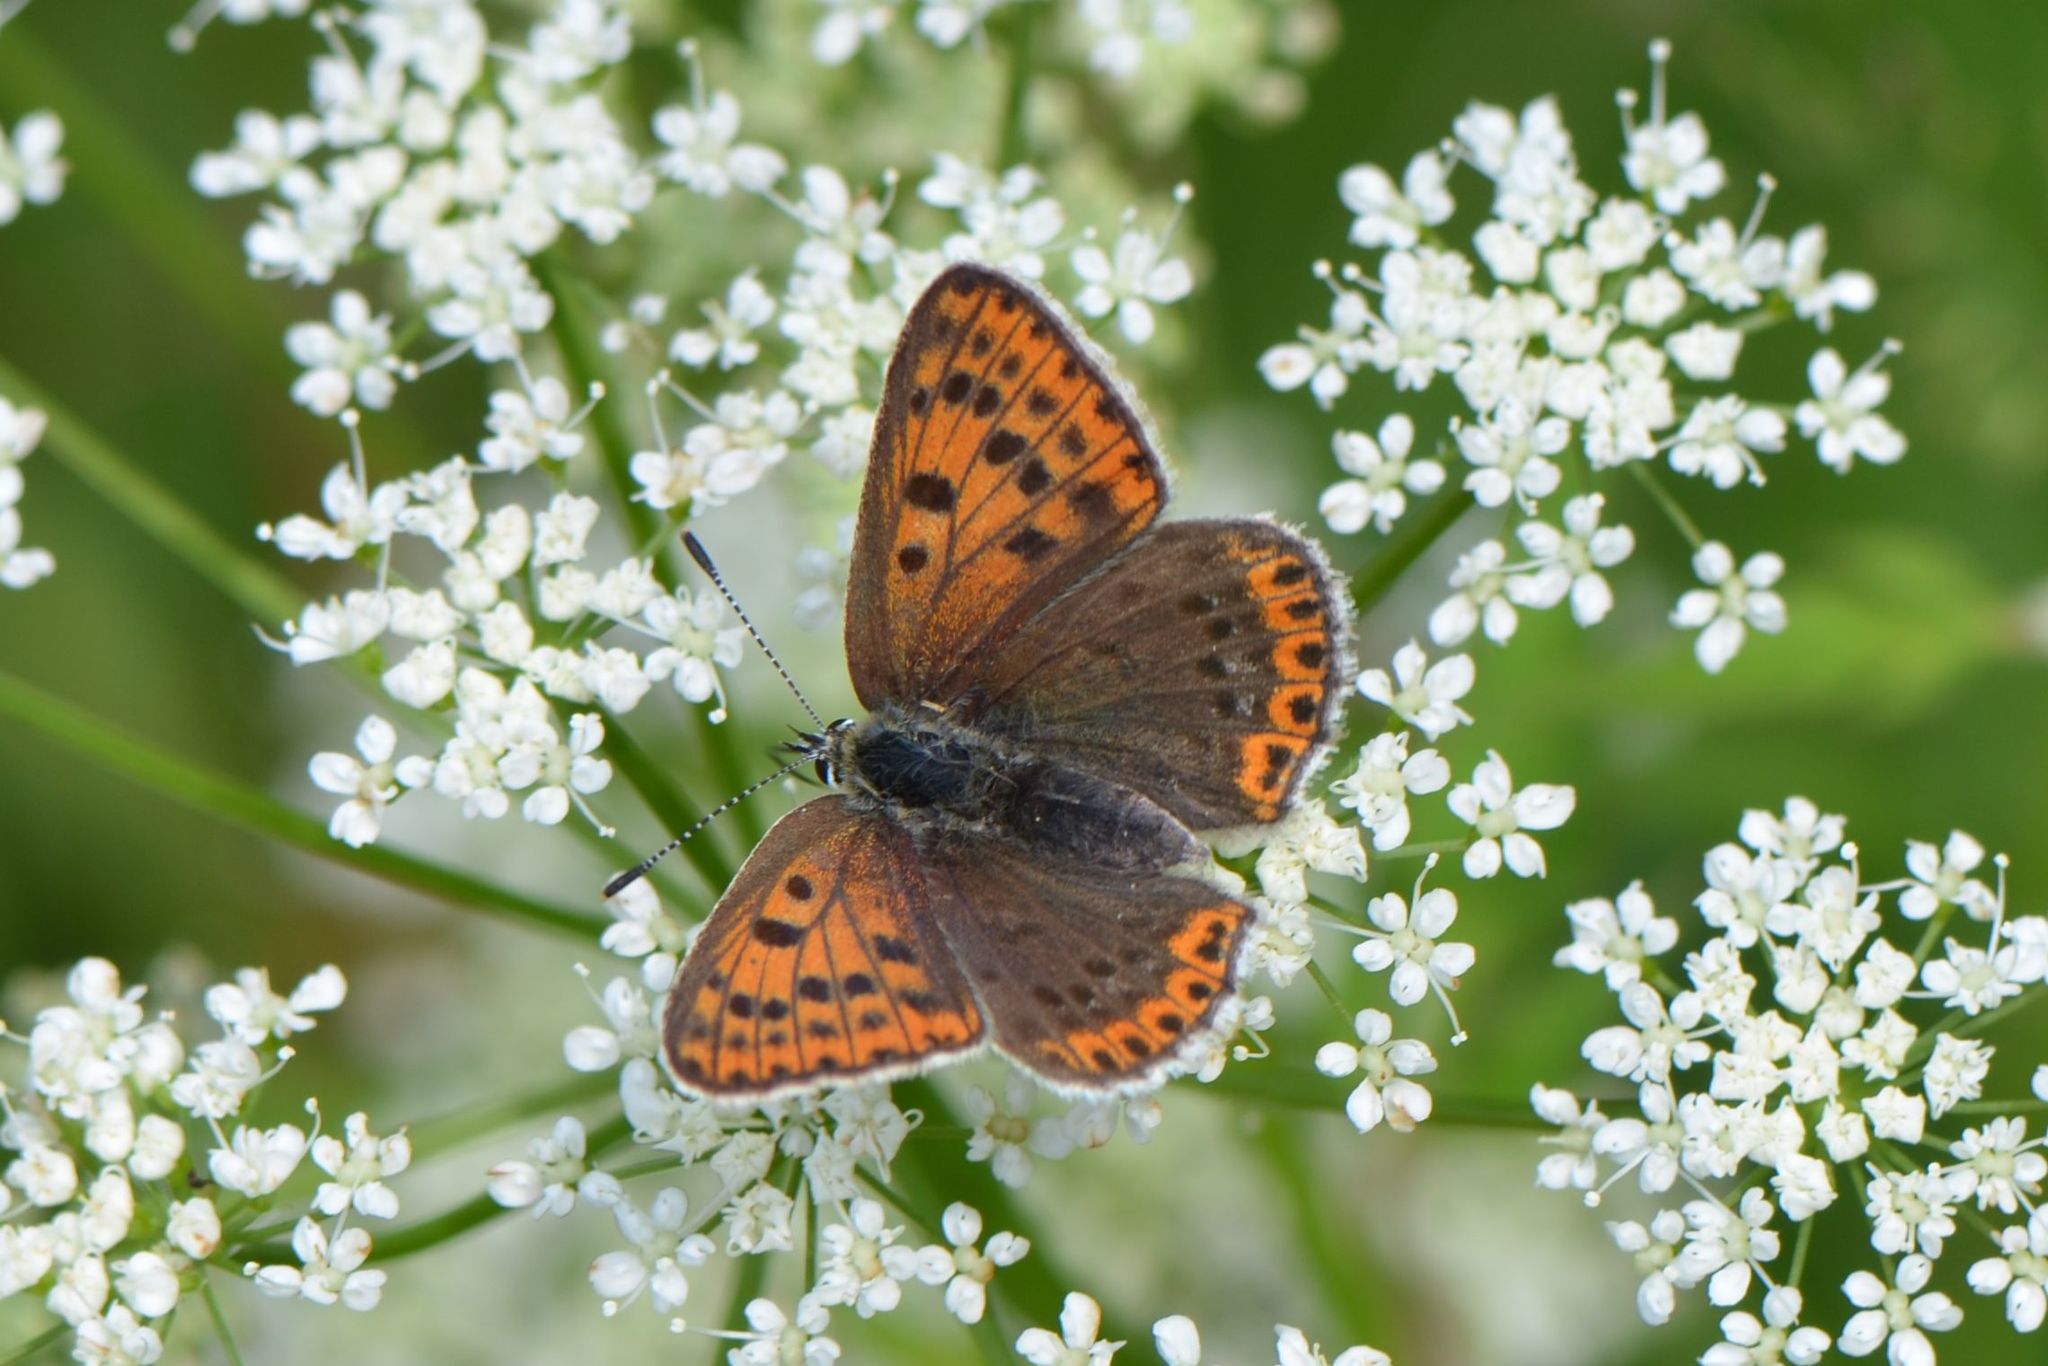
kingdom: Animalia
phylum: Arthropoda
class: Insecta
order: Lepidoptera
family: Lycaenidae
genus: Loweia
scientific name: Loweia tityrus
